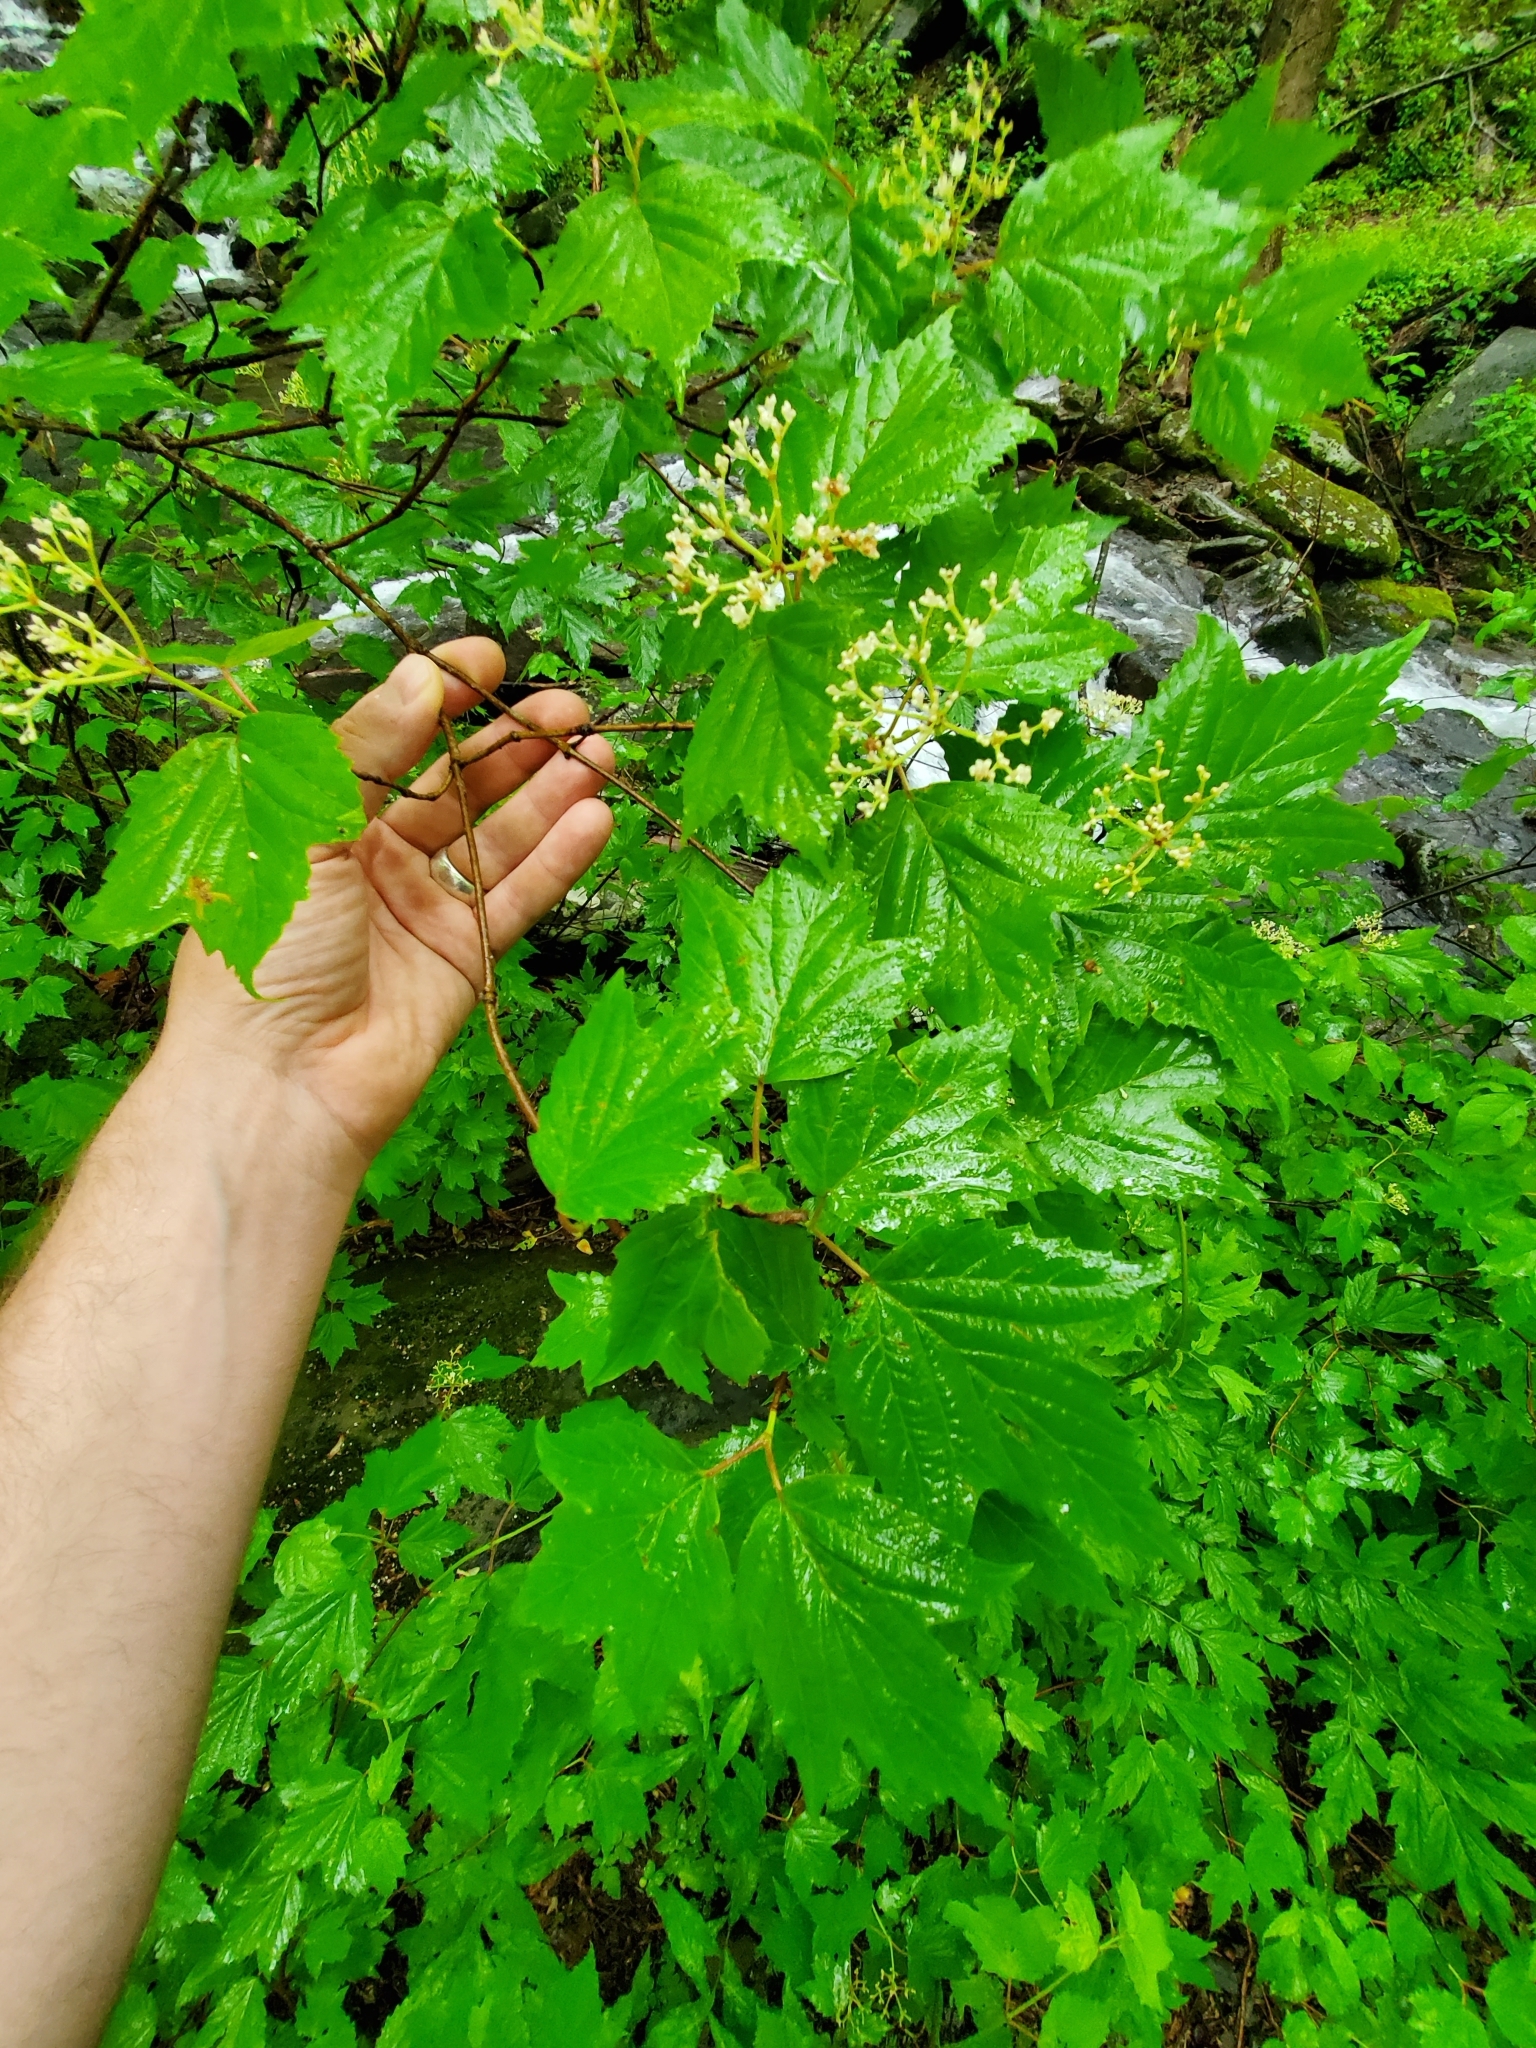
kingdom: Plantae
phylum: Tracheophyta
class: Magnoliopsida
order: Dipsacales
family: Viburnaceae
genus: Viburnum
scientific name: Viburnum acerifolium
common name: Dockmackie
